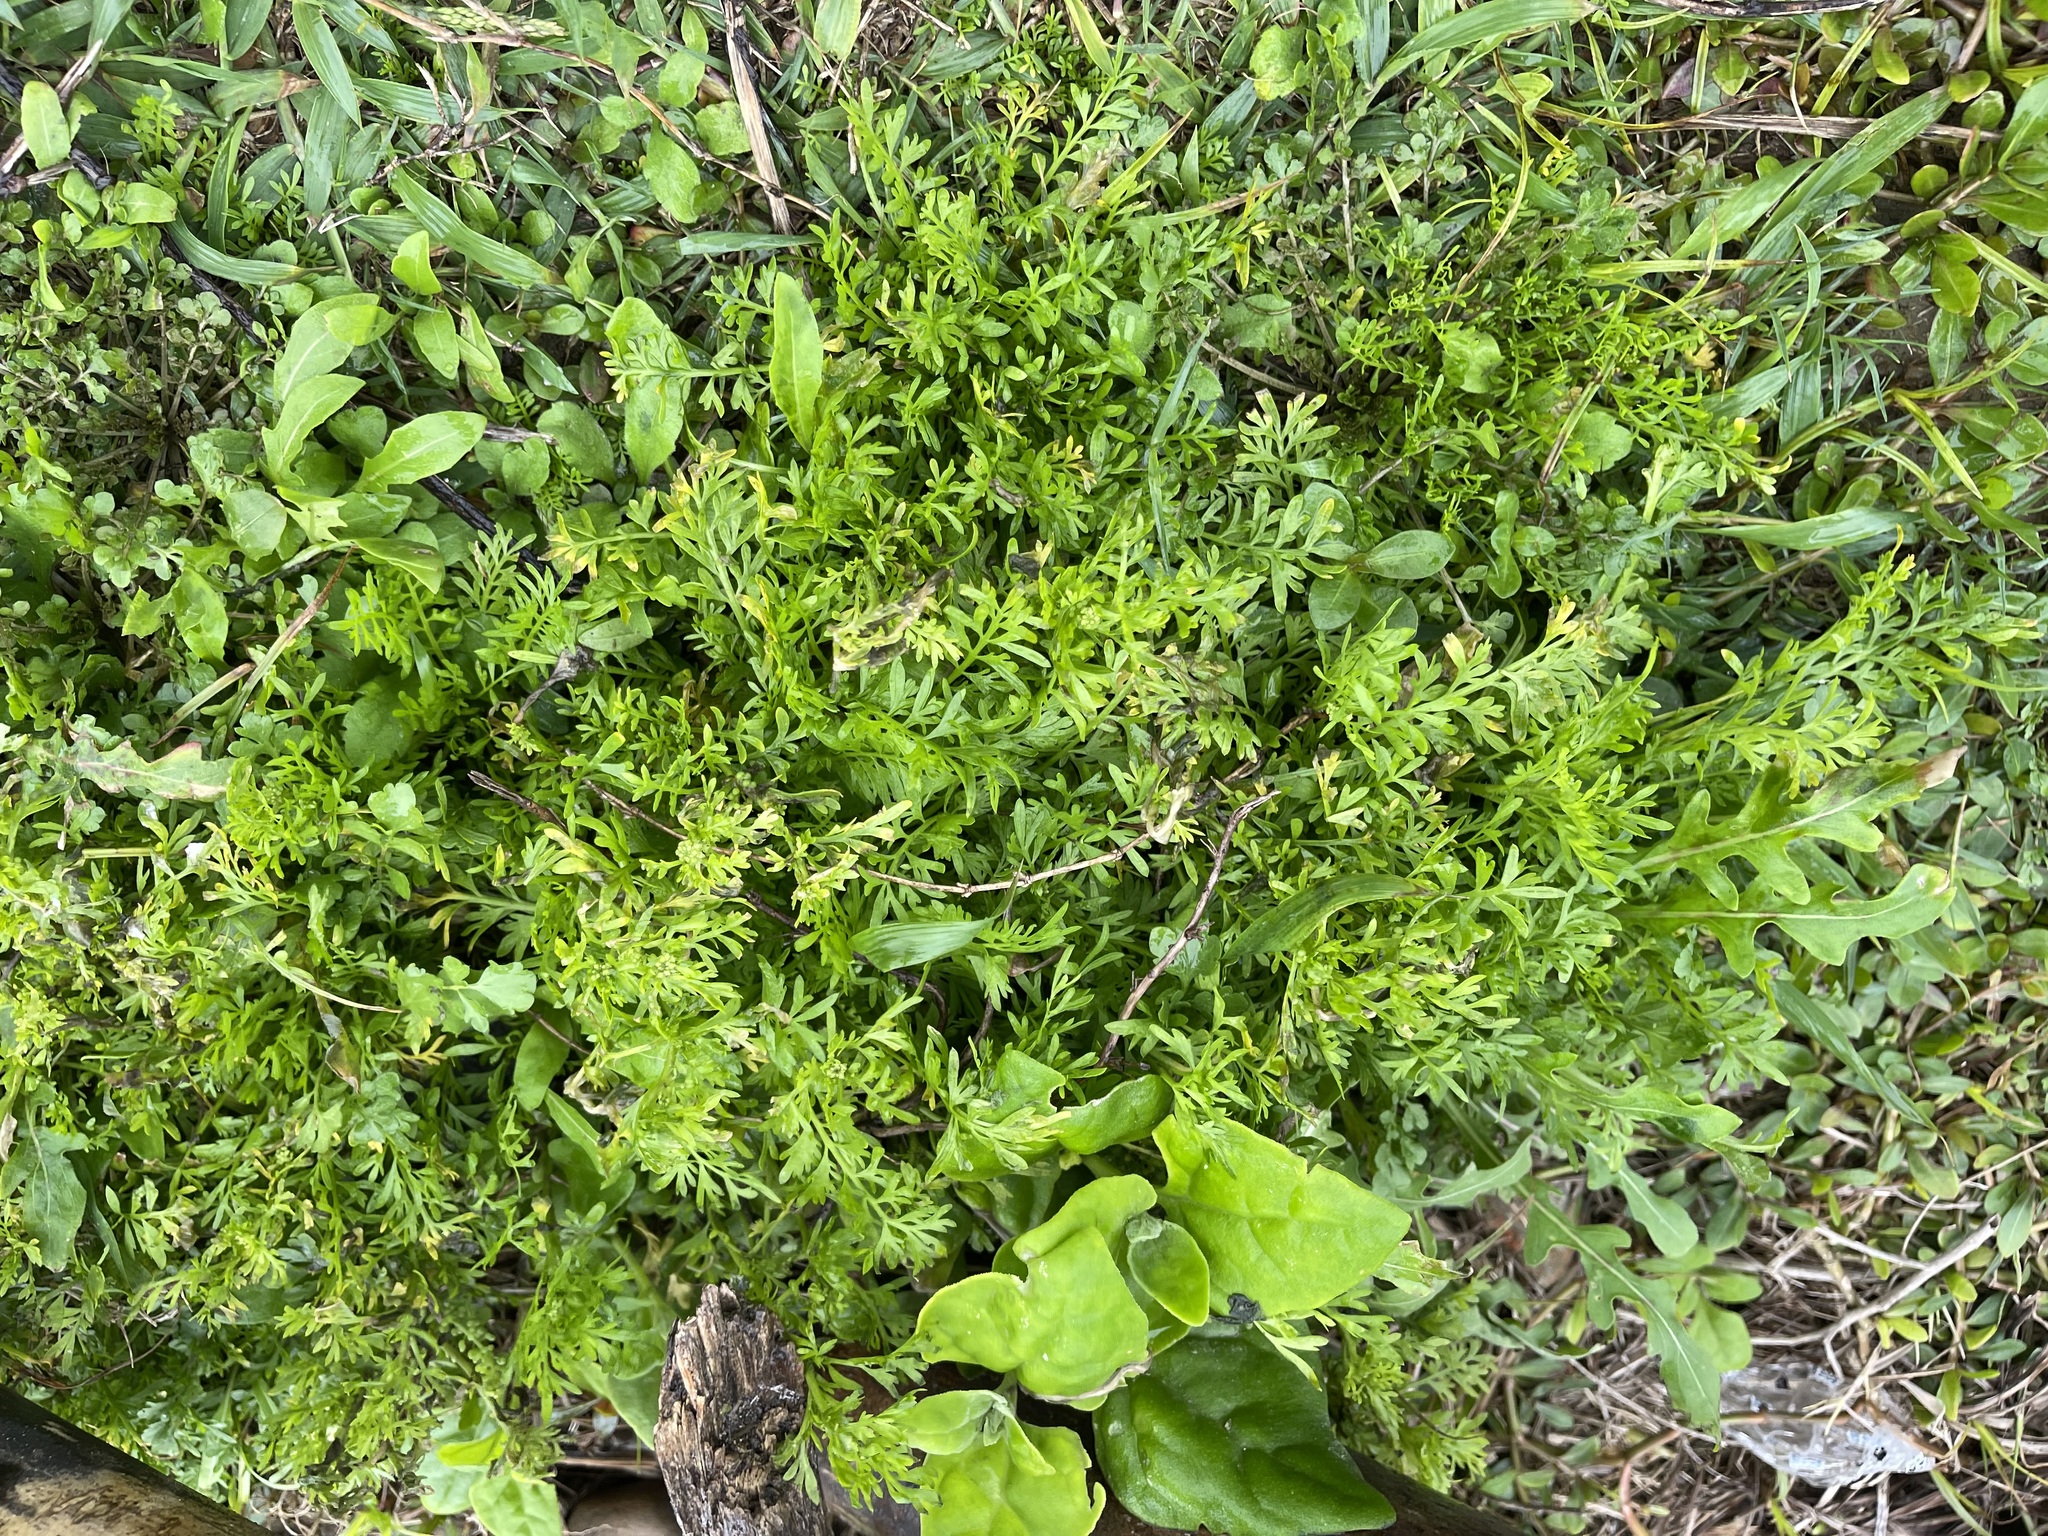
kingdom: Plantae
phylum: Tracheophyta
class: Magnoliopsida
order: Brassicales
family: Brassicaceae
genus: Lepidium
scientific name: Lepidium didymum
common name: Lesser swinecress
